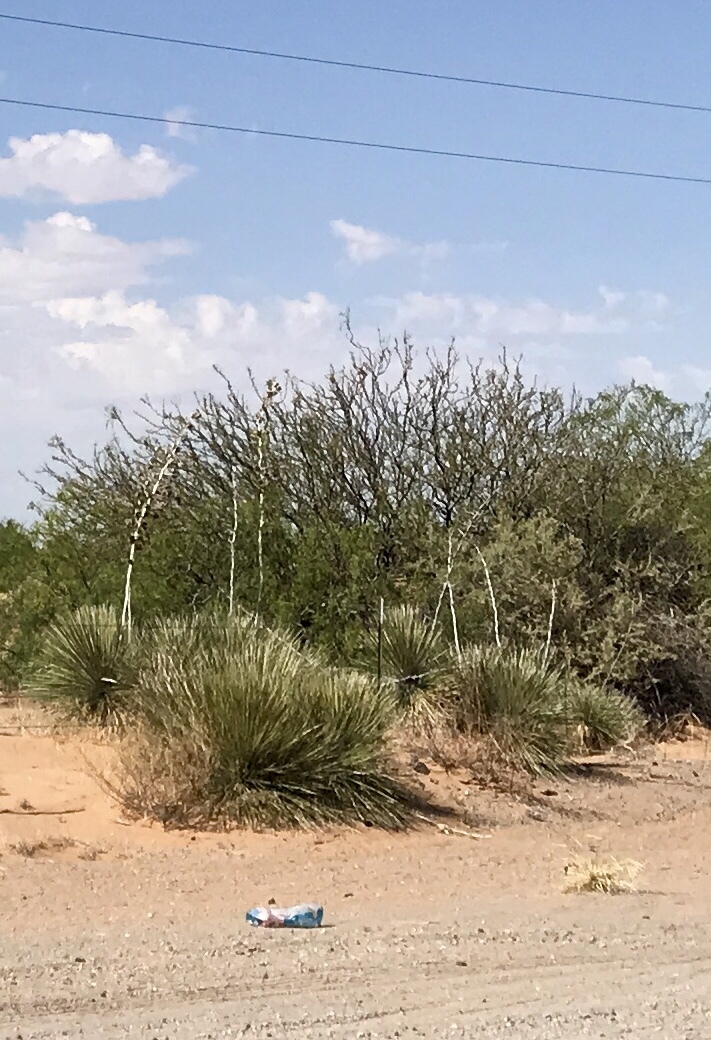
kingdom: Plantae
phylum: Tracheophyta
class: Liliopsida
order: Asparagales
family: Asparagaceae
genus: Yucca
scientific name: Yucca elata
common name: Palmella
